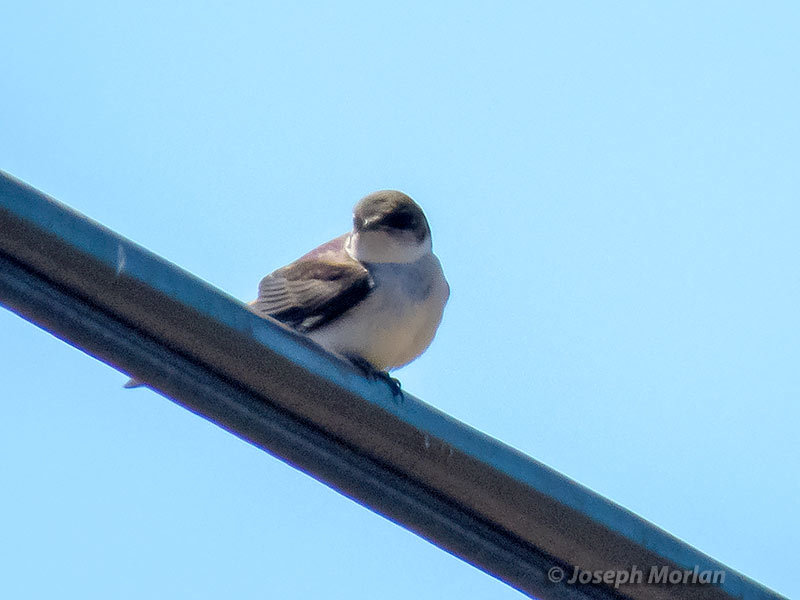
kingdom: Animalia
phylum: Chordata
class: Aves
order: Passeriformes
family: Hirundinidae
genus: Tachycineta
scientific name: Tachycineta thalassina
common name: Violet-green swallow
